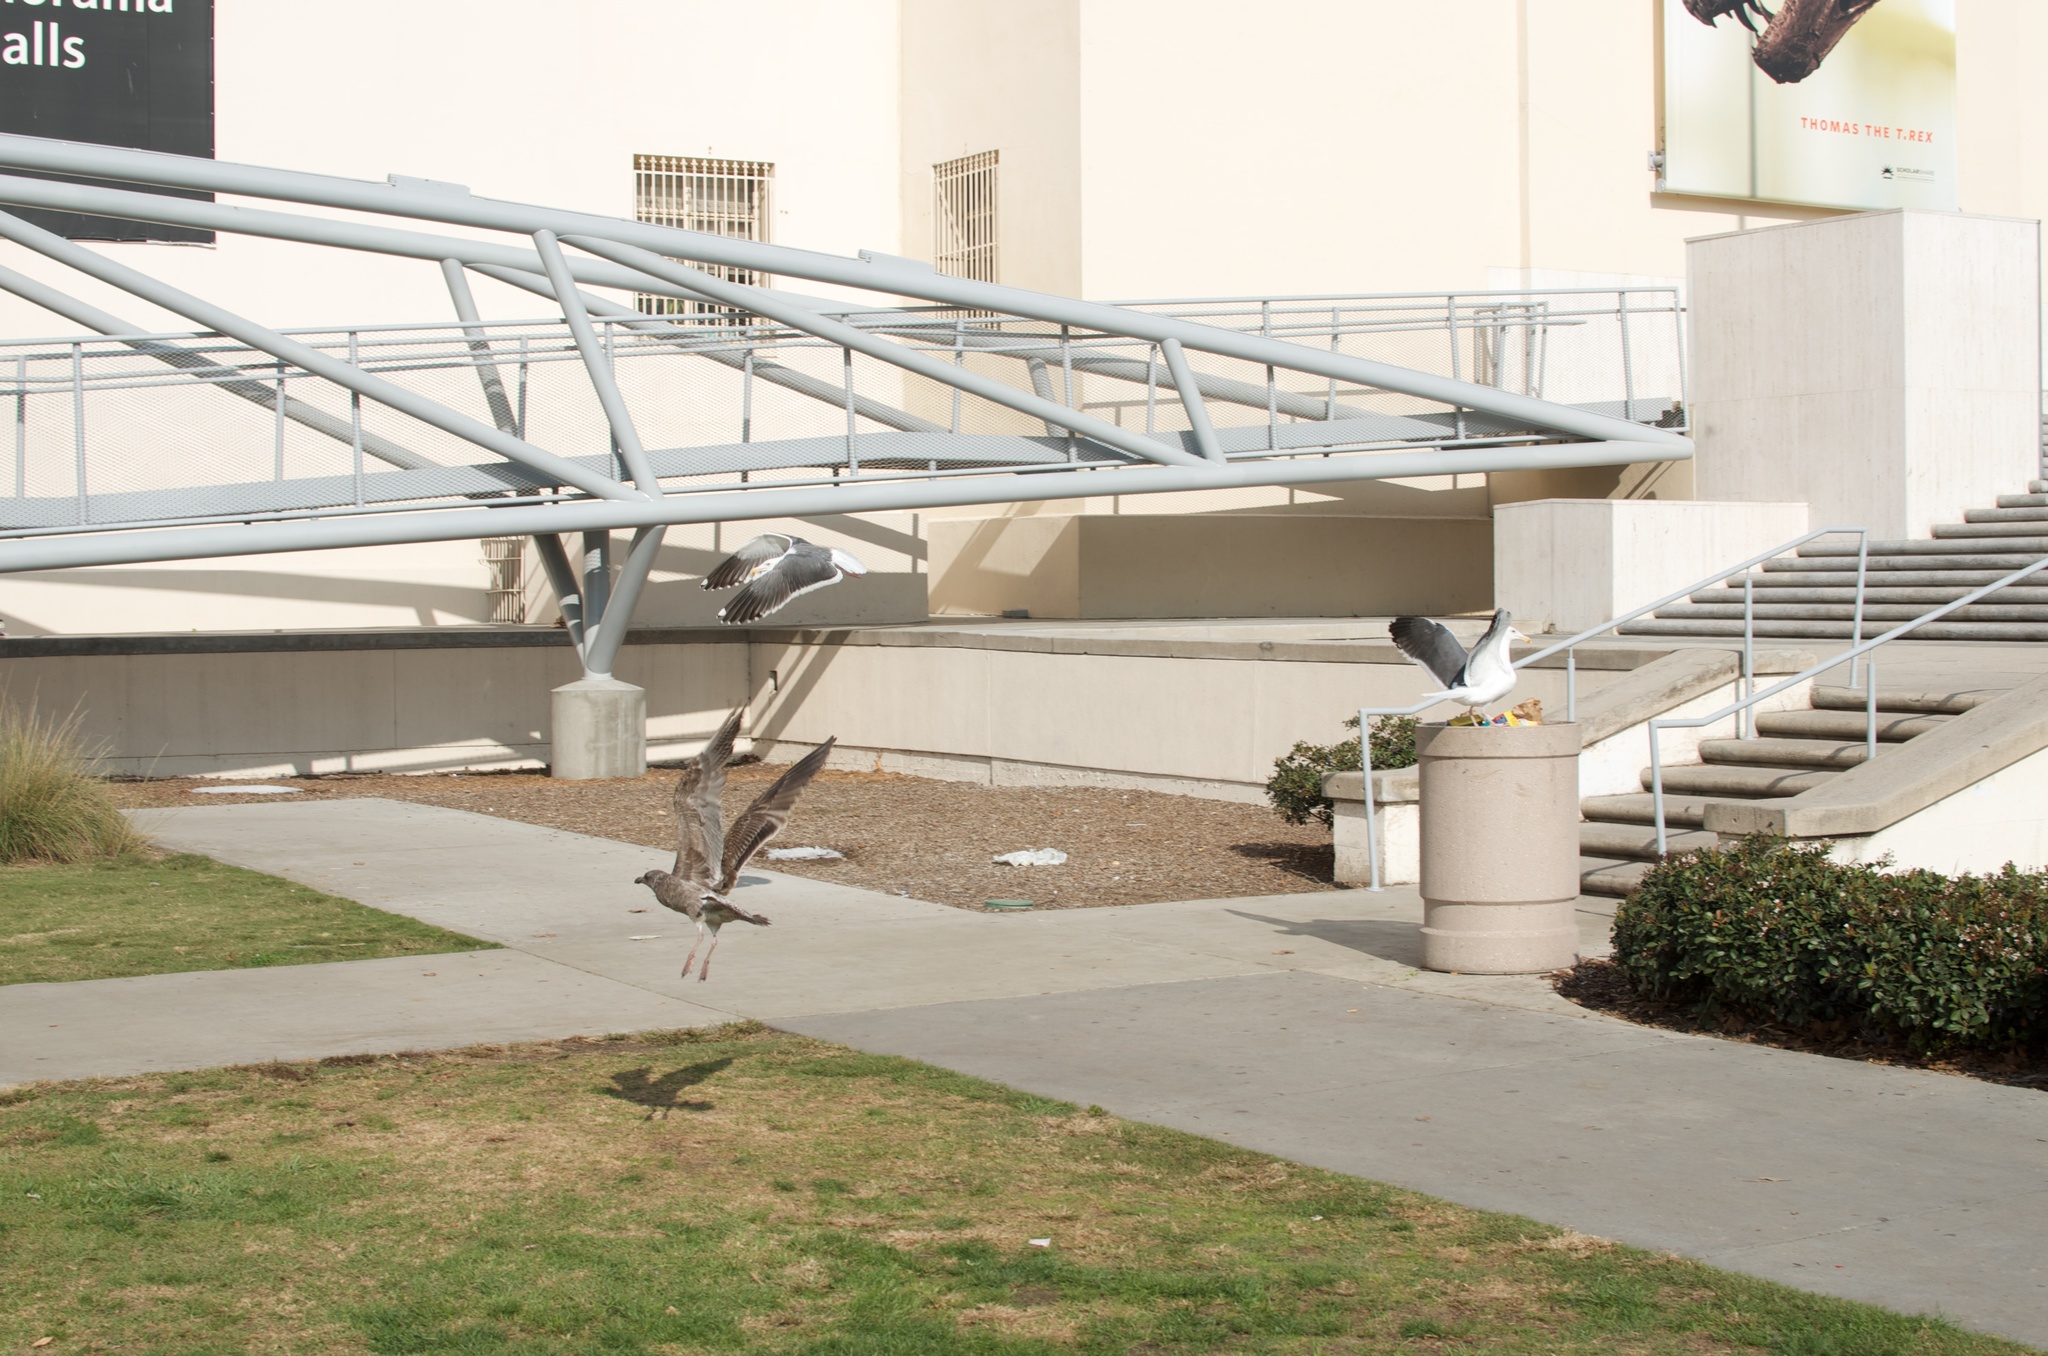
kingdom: Animalia
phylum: Chordata
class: Aves
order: Charadriiformes
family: Laridae
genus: Larus
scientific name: Larus occidentalis
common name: Western gull
